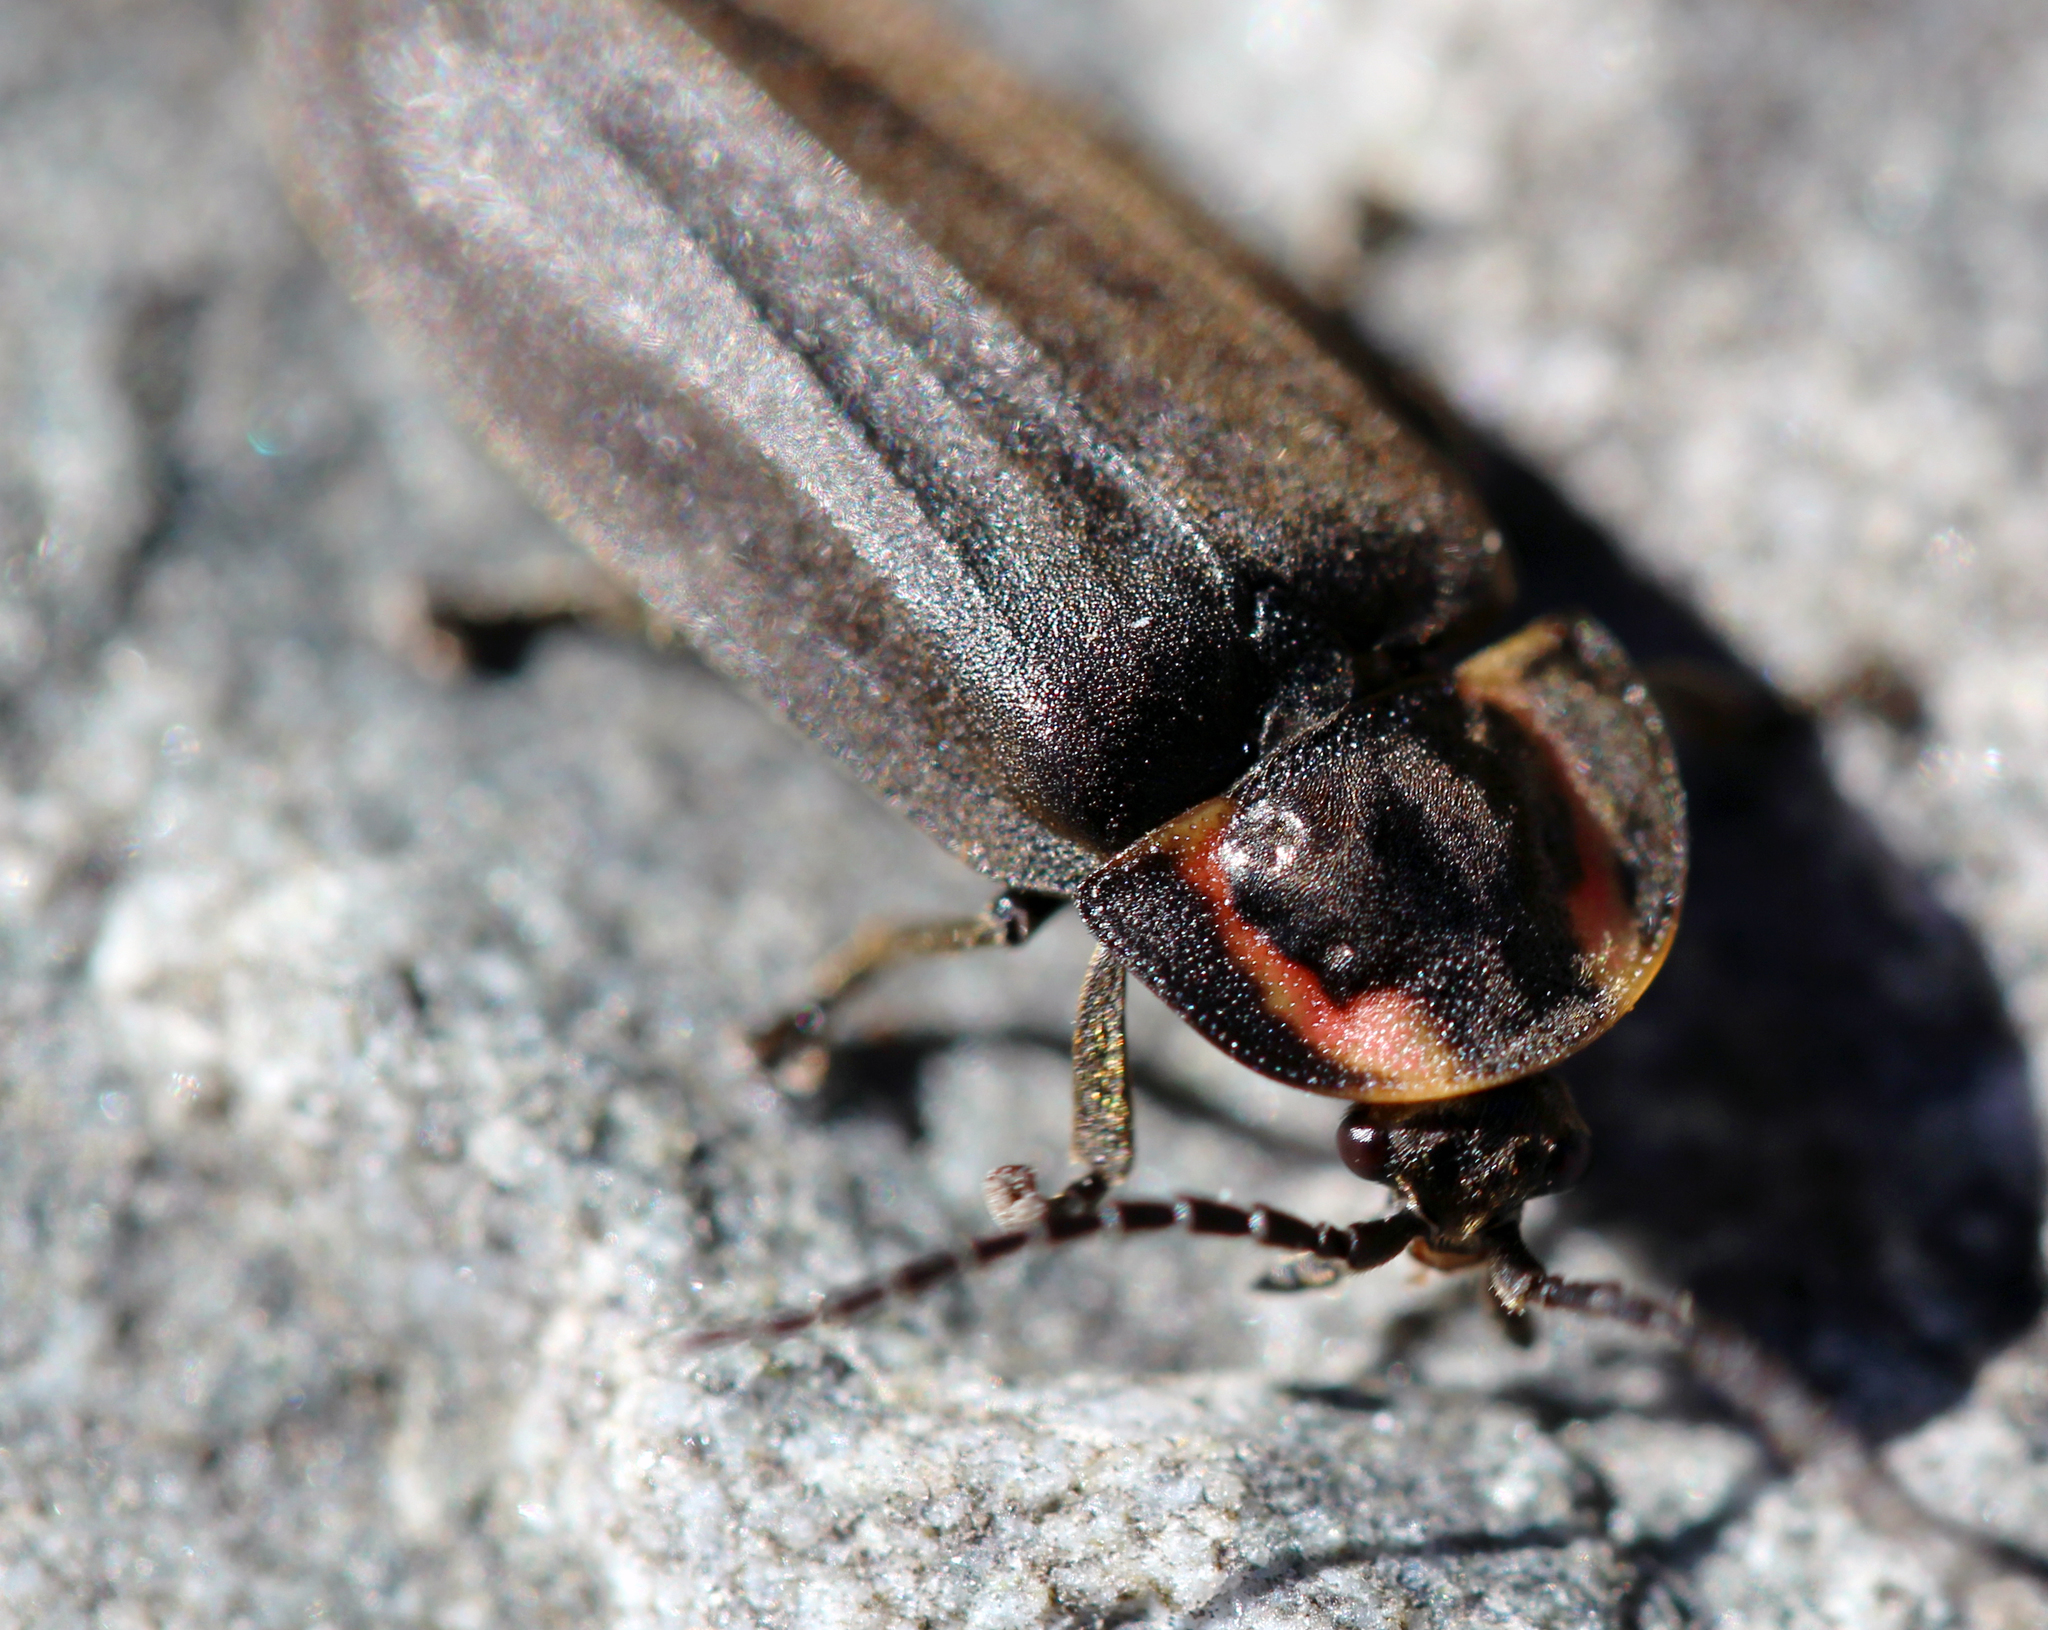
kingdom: Animalia
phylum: Arthropoda
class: Insecta
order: Coleoptera
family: Lampyridae
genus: Photinus
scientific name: Photinus corrusca
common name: Winter firefly
